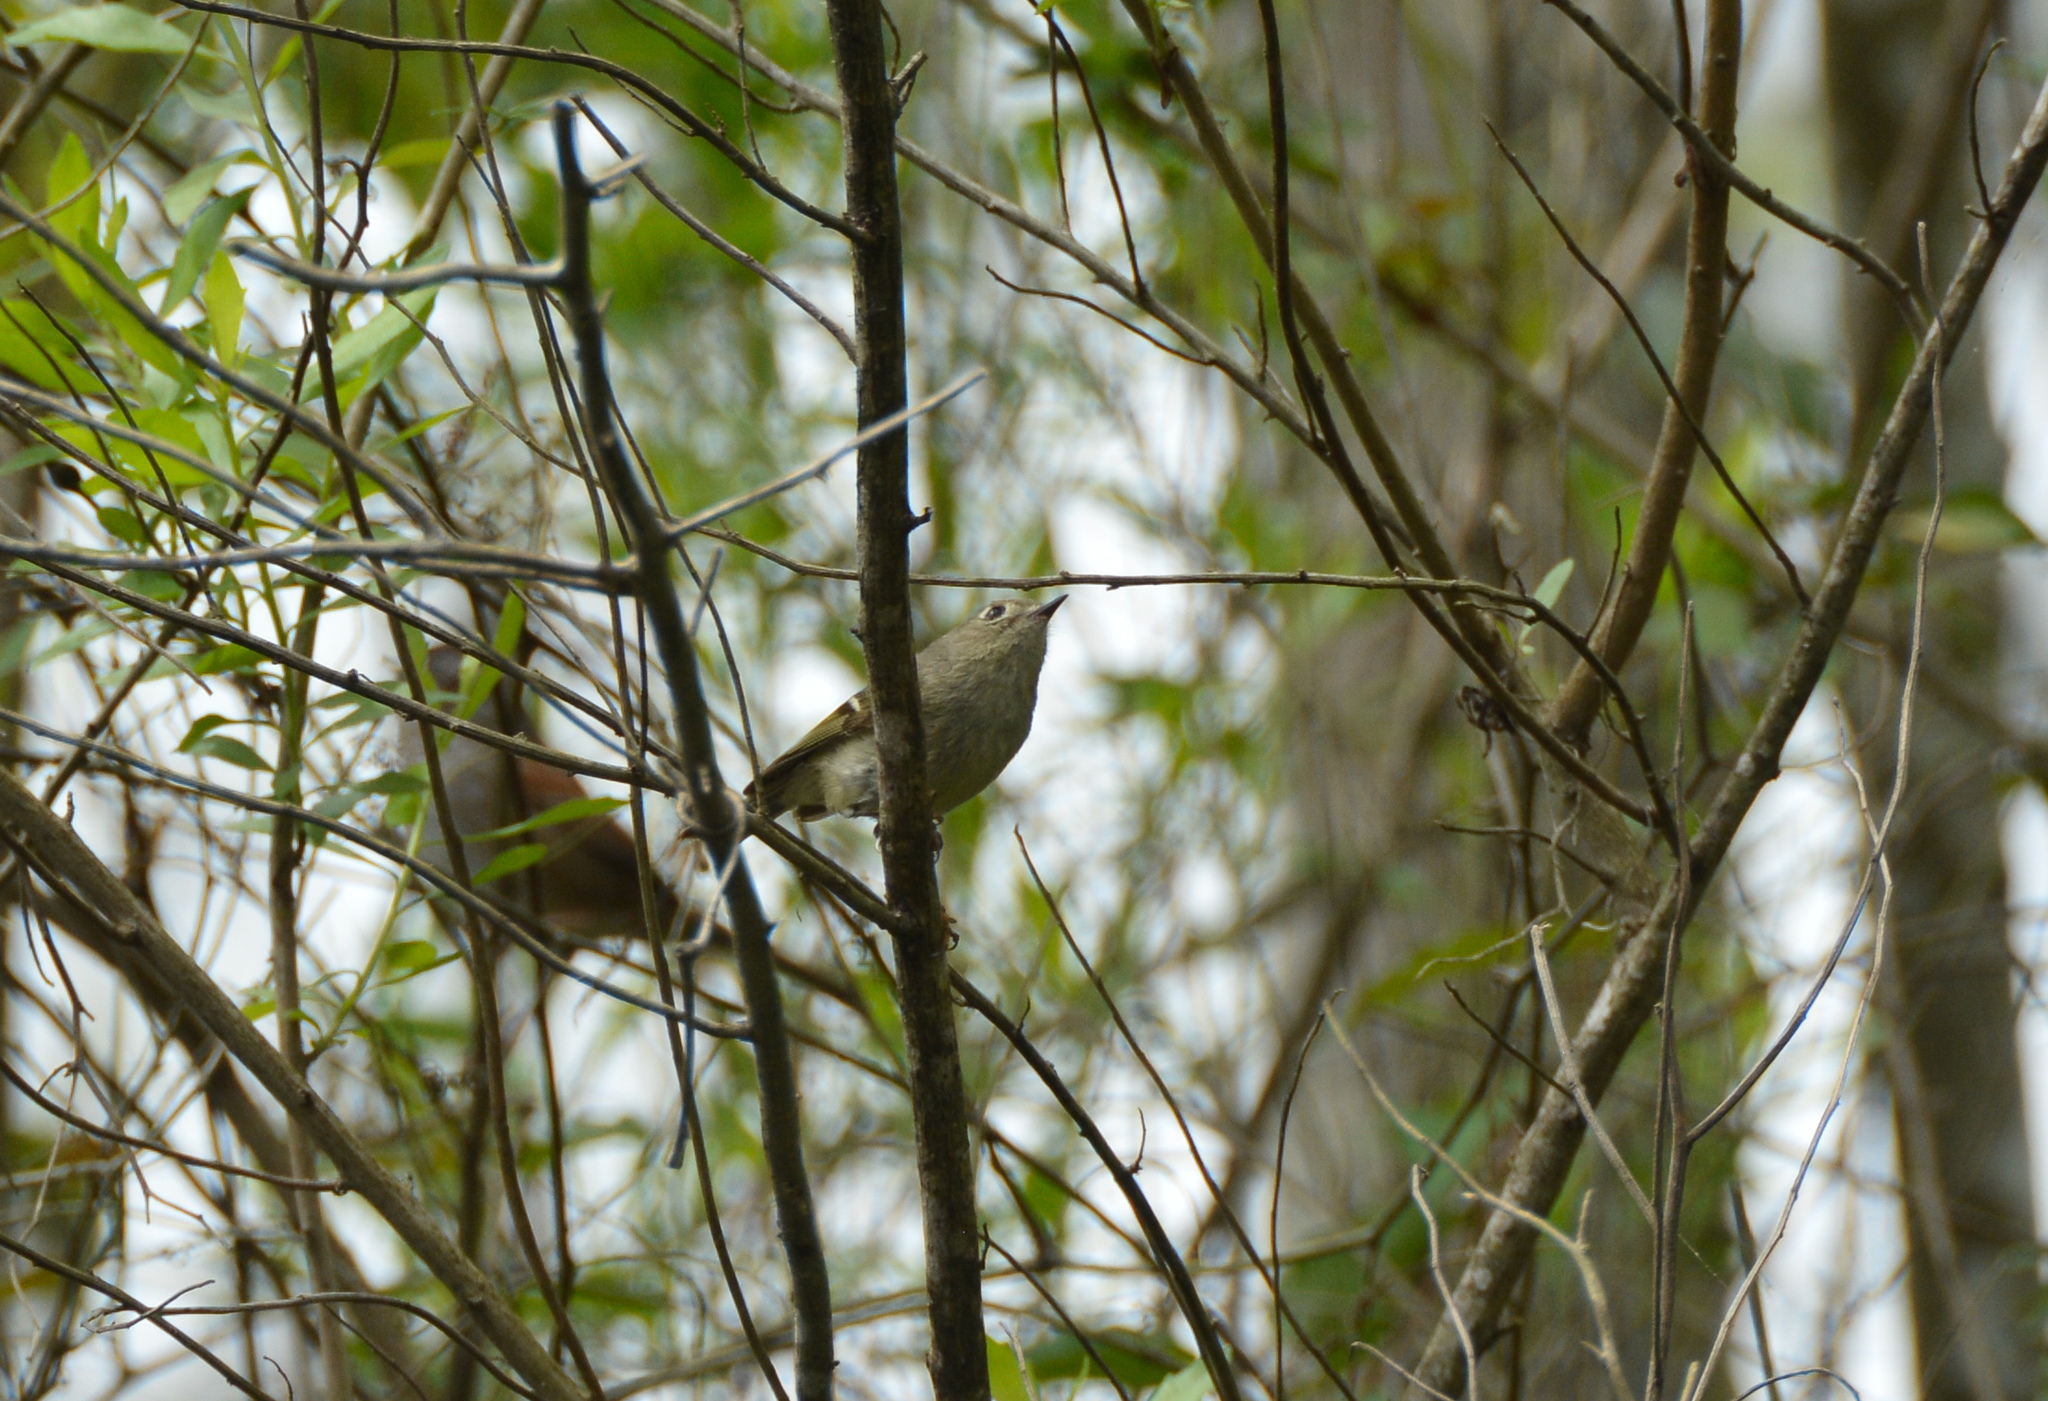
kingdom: Animalia
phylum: Chordata
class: Aves
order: Passeriformes
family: Regulidae
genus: Regulus
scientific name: Regulus calendula
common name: Ruby-crowned kinglet
